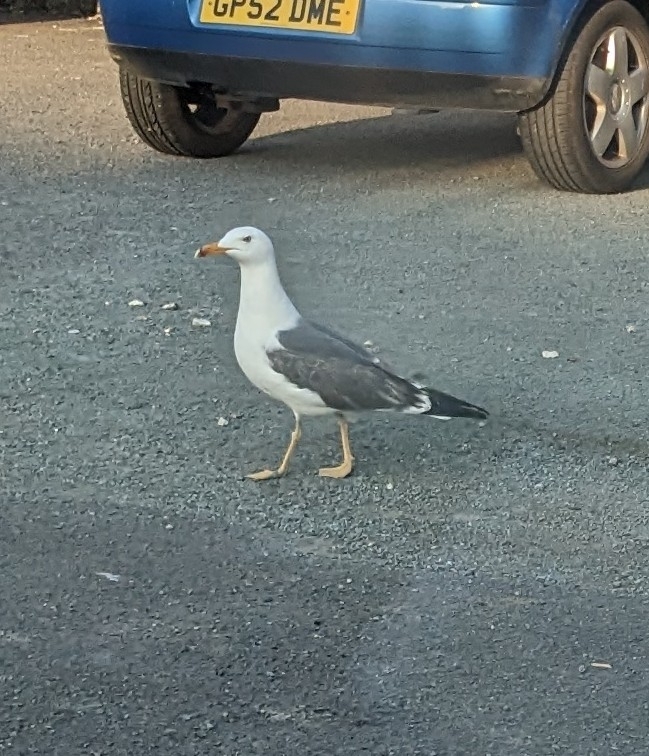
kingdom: Animalia
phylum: Chordata
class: Aves
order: Charadriiformes
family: Laridae
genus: Larus
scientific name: Larus fuscus
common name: Lesser black-backed gull
